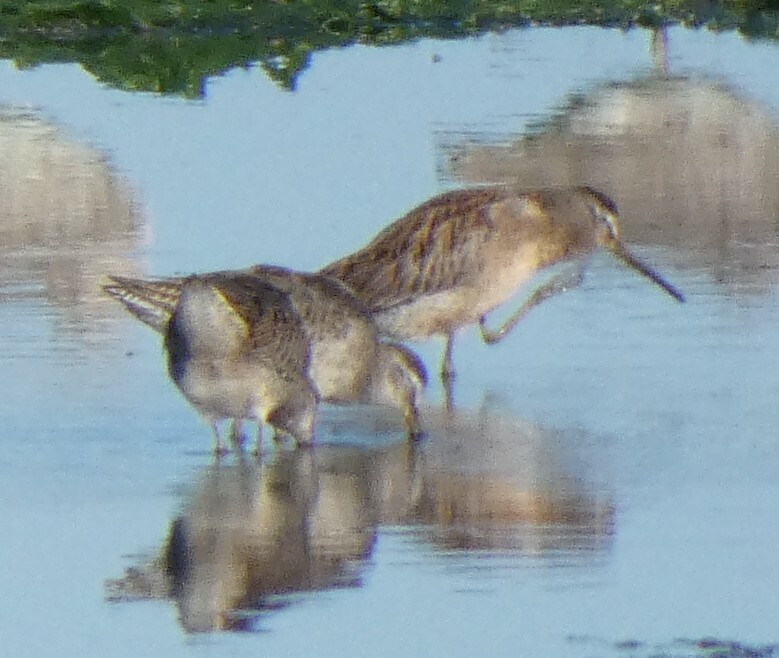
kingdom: Animalia
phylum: Chordata
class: Aves
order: Charadriiformes
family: Scolopacidae
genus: Limnodromus
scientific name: Limnodromus griseus
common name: Short-billed dowitcher
